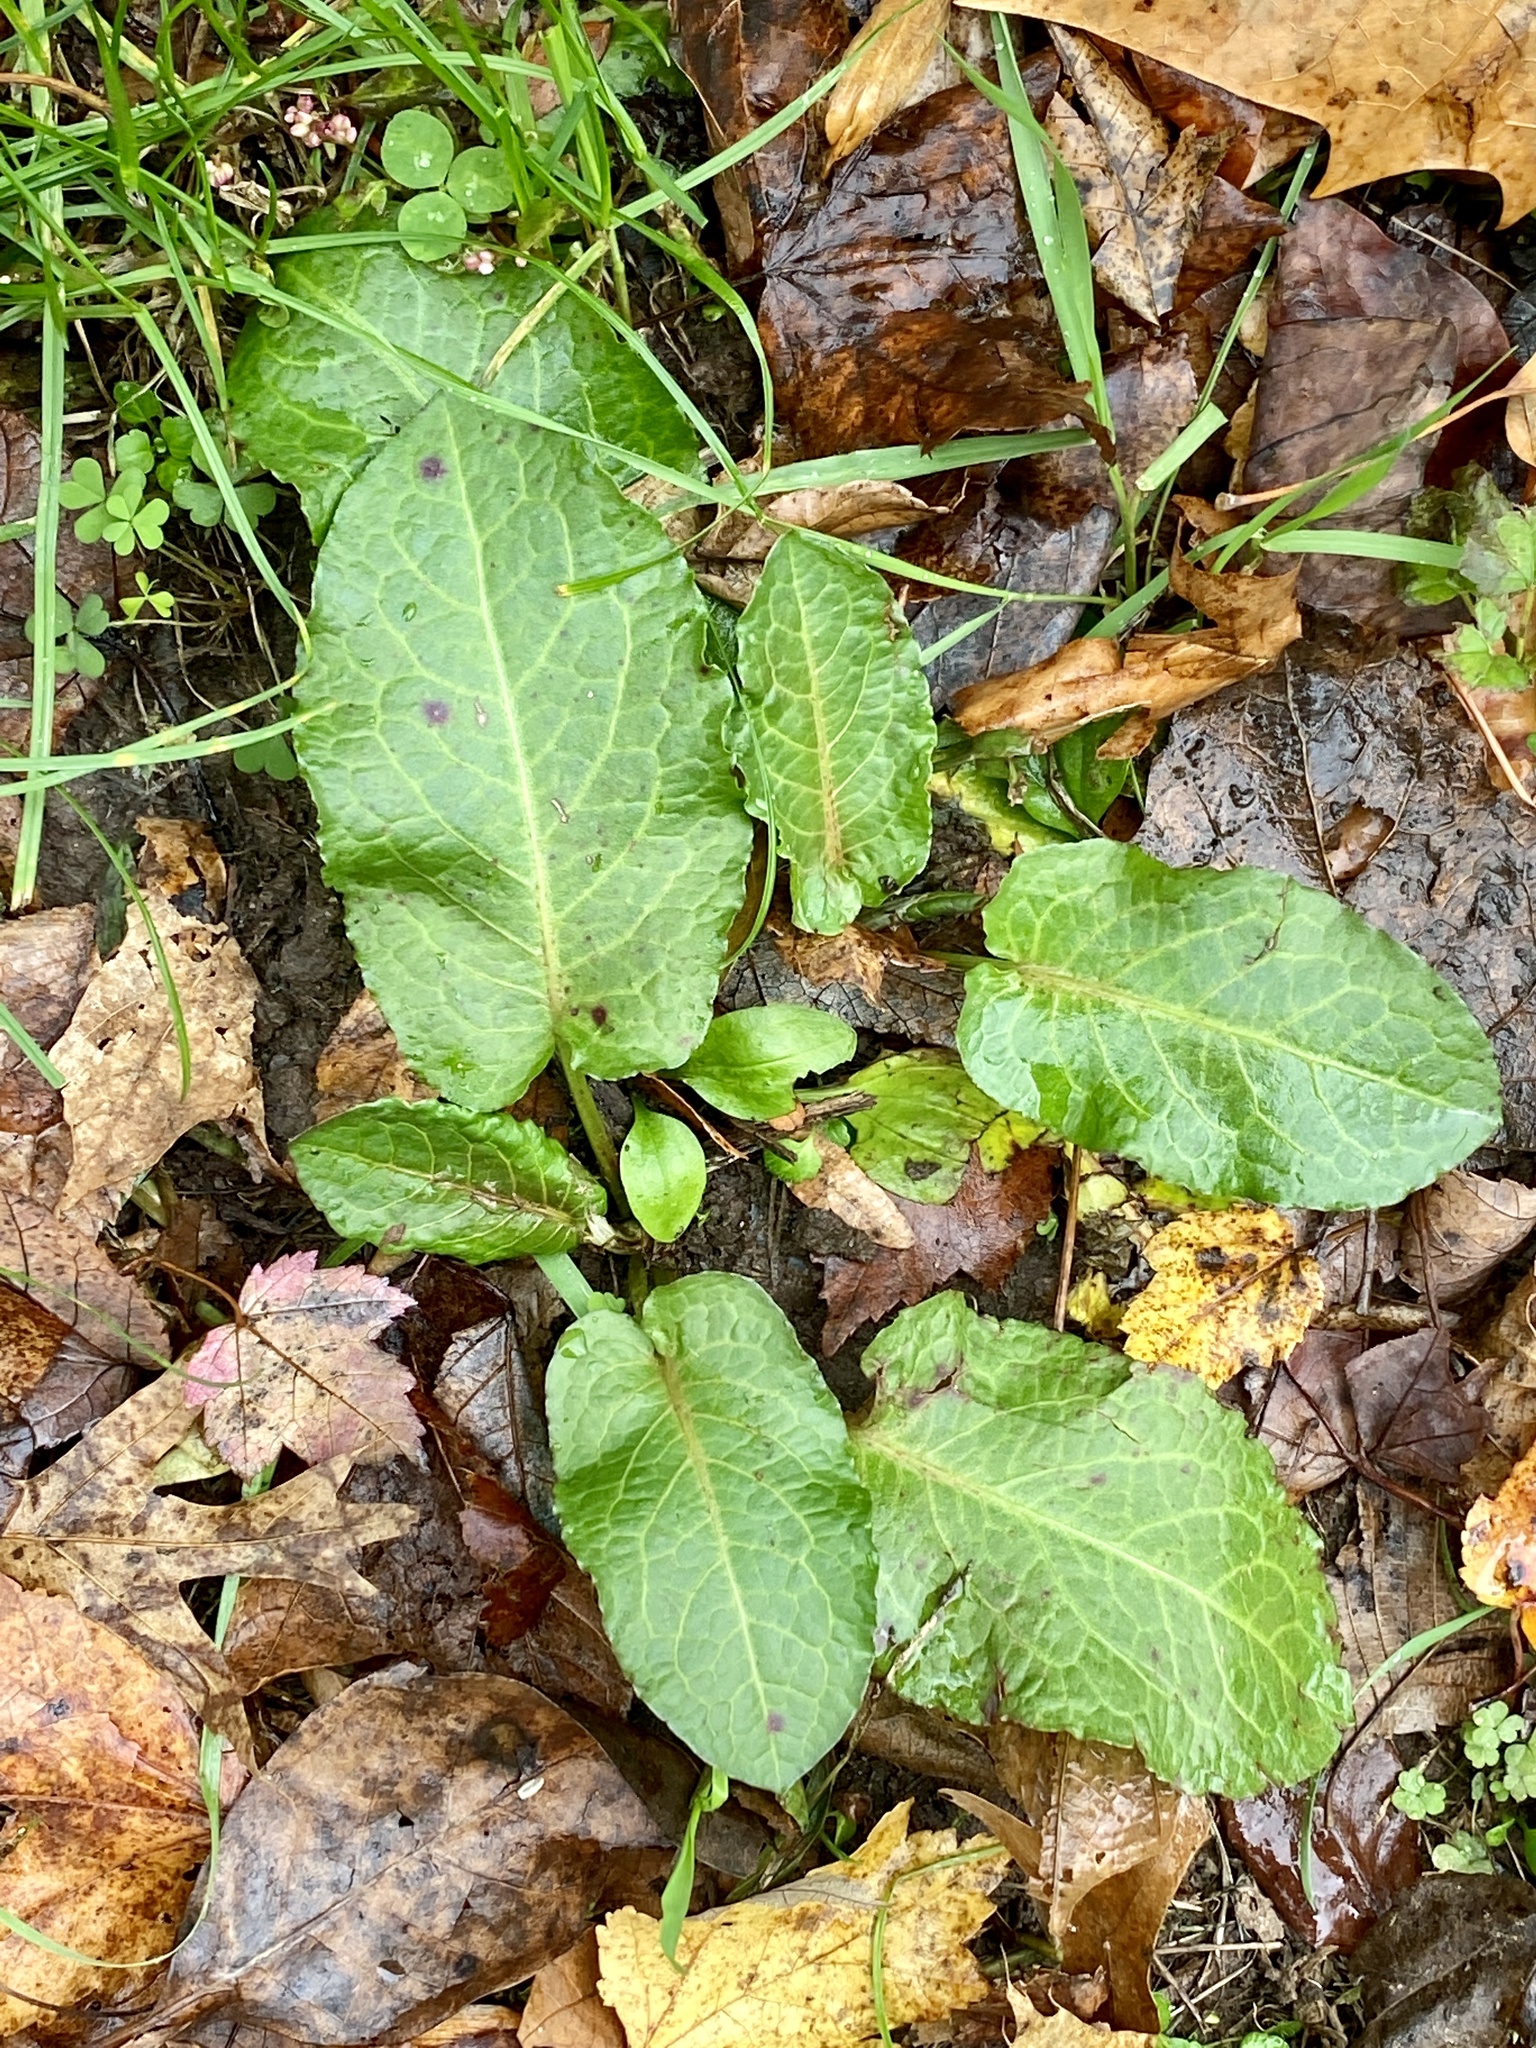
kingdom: Plantae
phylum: Tracheophyta
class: Magnoliopsida
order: Caryophyllales
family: Polygonaceae
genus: Rumex
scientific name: Rumex obtusifolius
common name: Bitter dock
